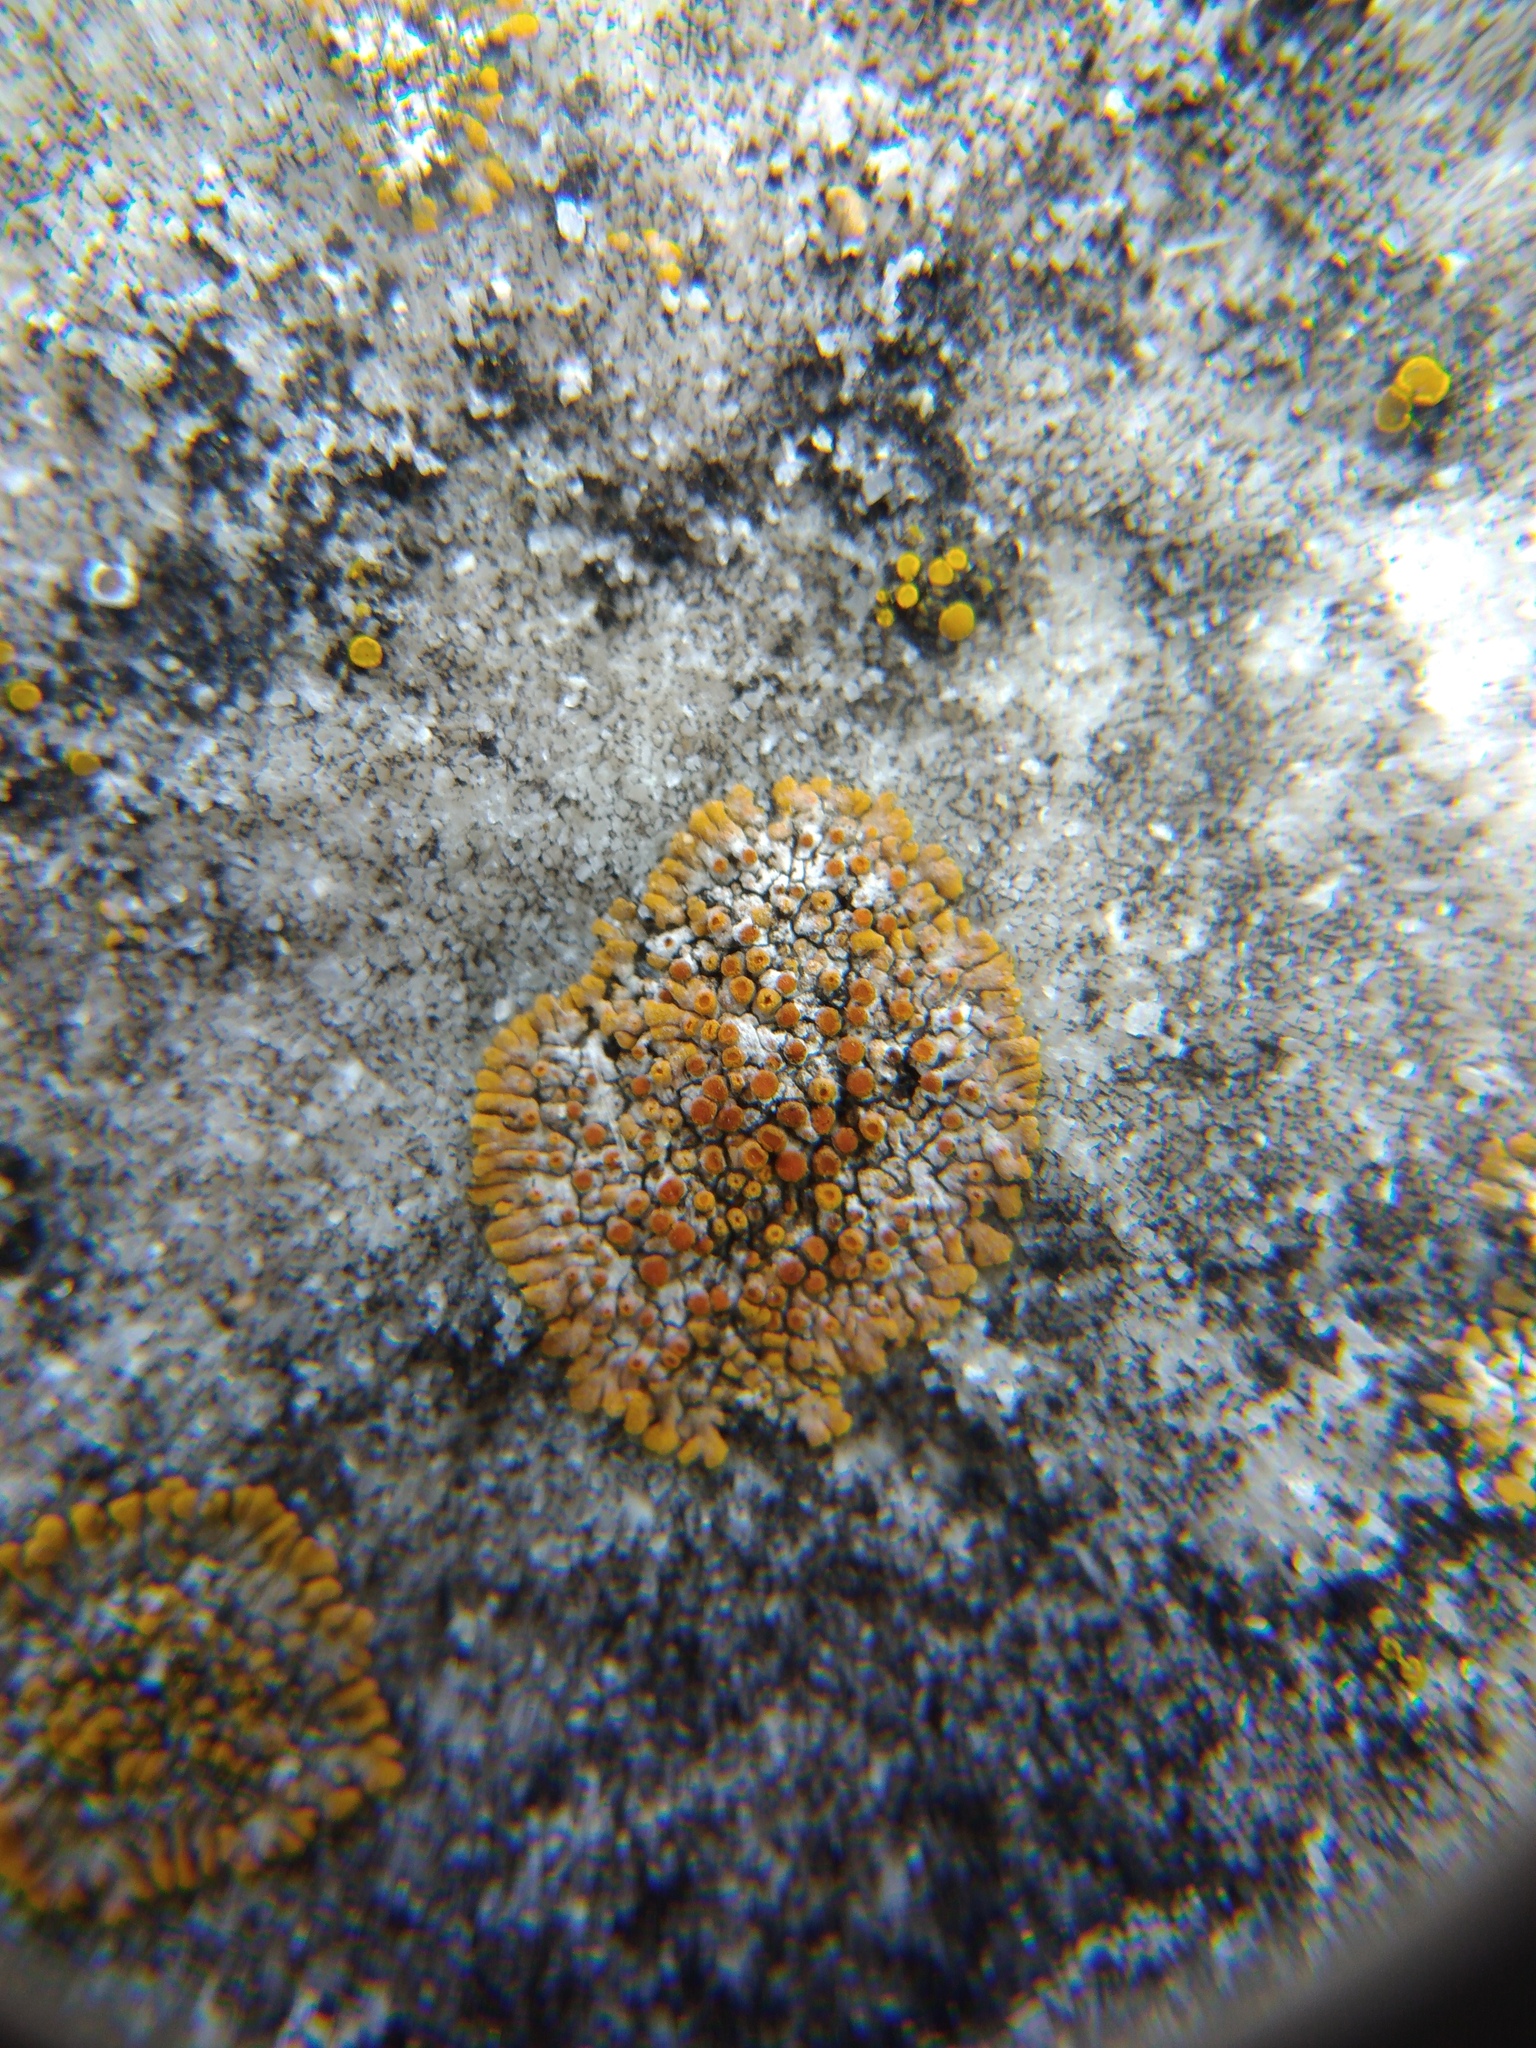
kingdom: Fungi
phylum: Ascomycota
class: Lecanoromycetes
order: Teloschistales
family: Teloschistaceae
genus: Calogaya
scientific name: Calogaya pusilla
